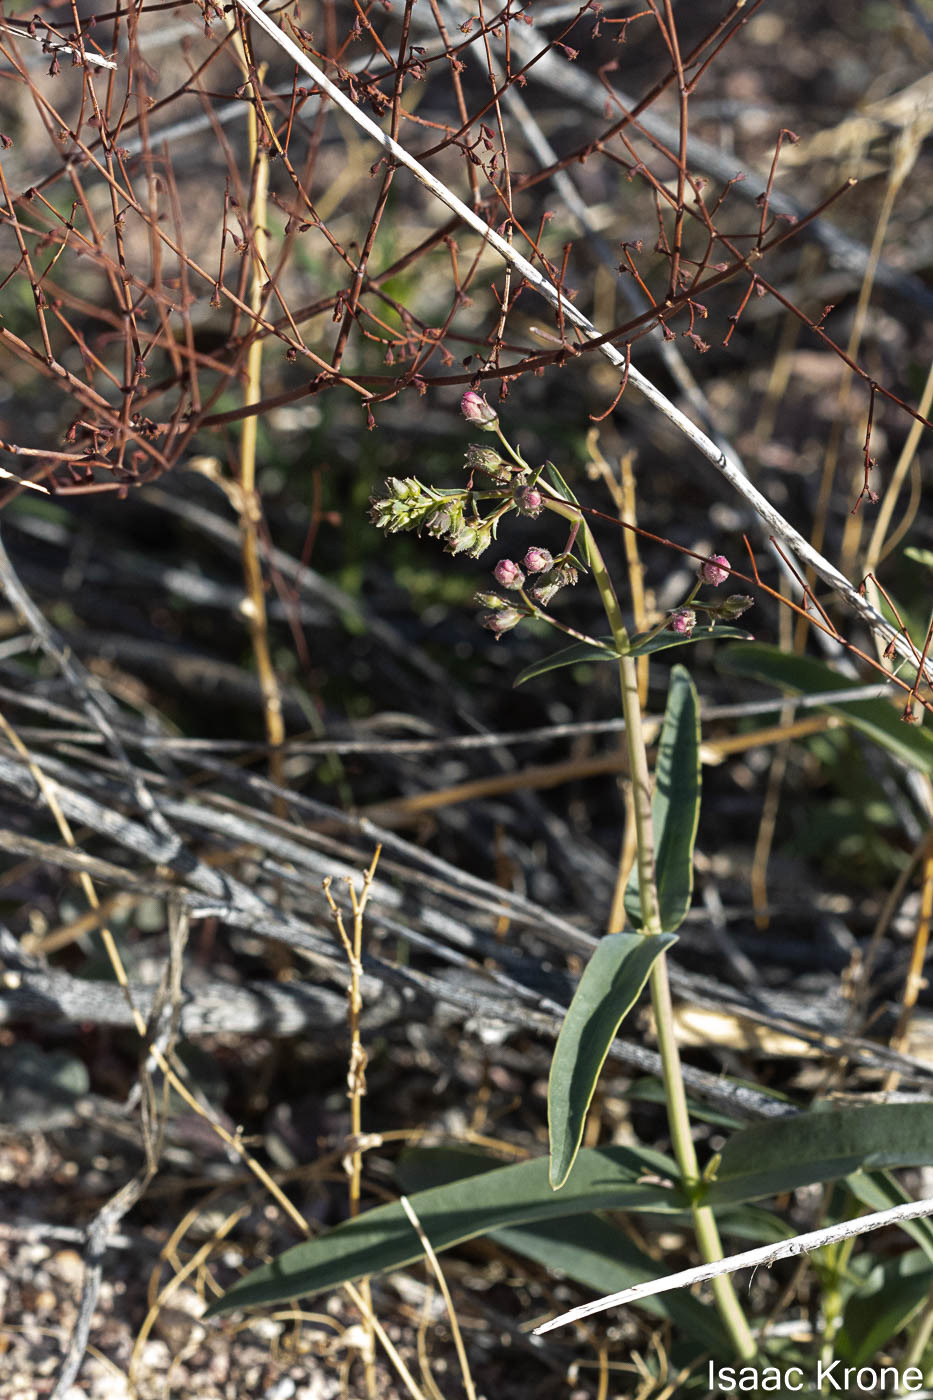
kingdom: Plantae
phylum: Tracheophyta
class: Magnoliopsida
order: Lamiales
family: Plantaginaceae
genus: Penstemon
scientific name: Penstemon parryi
